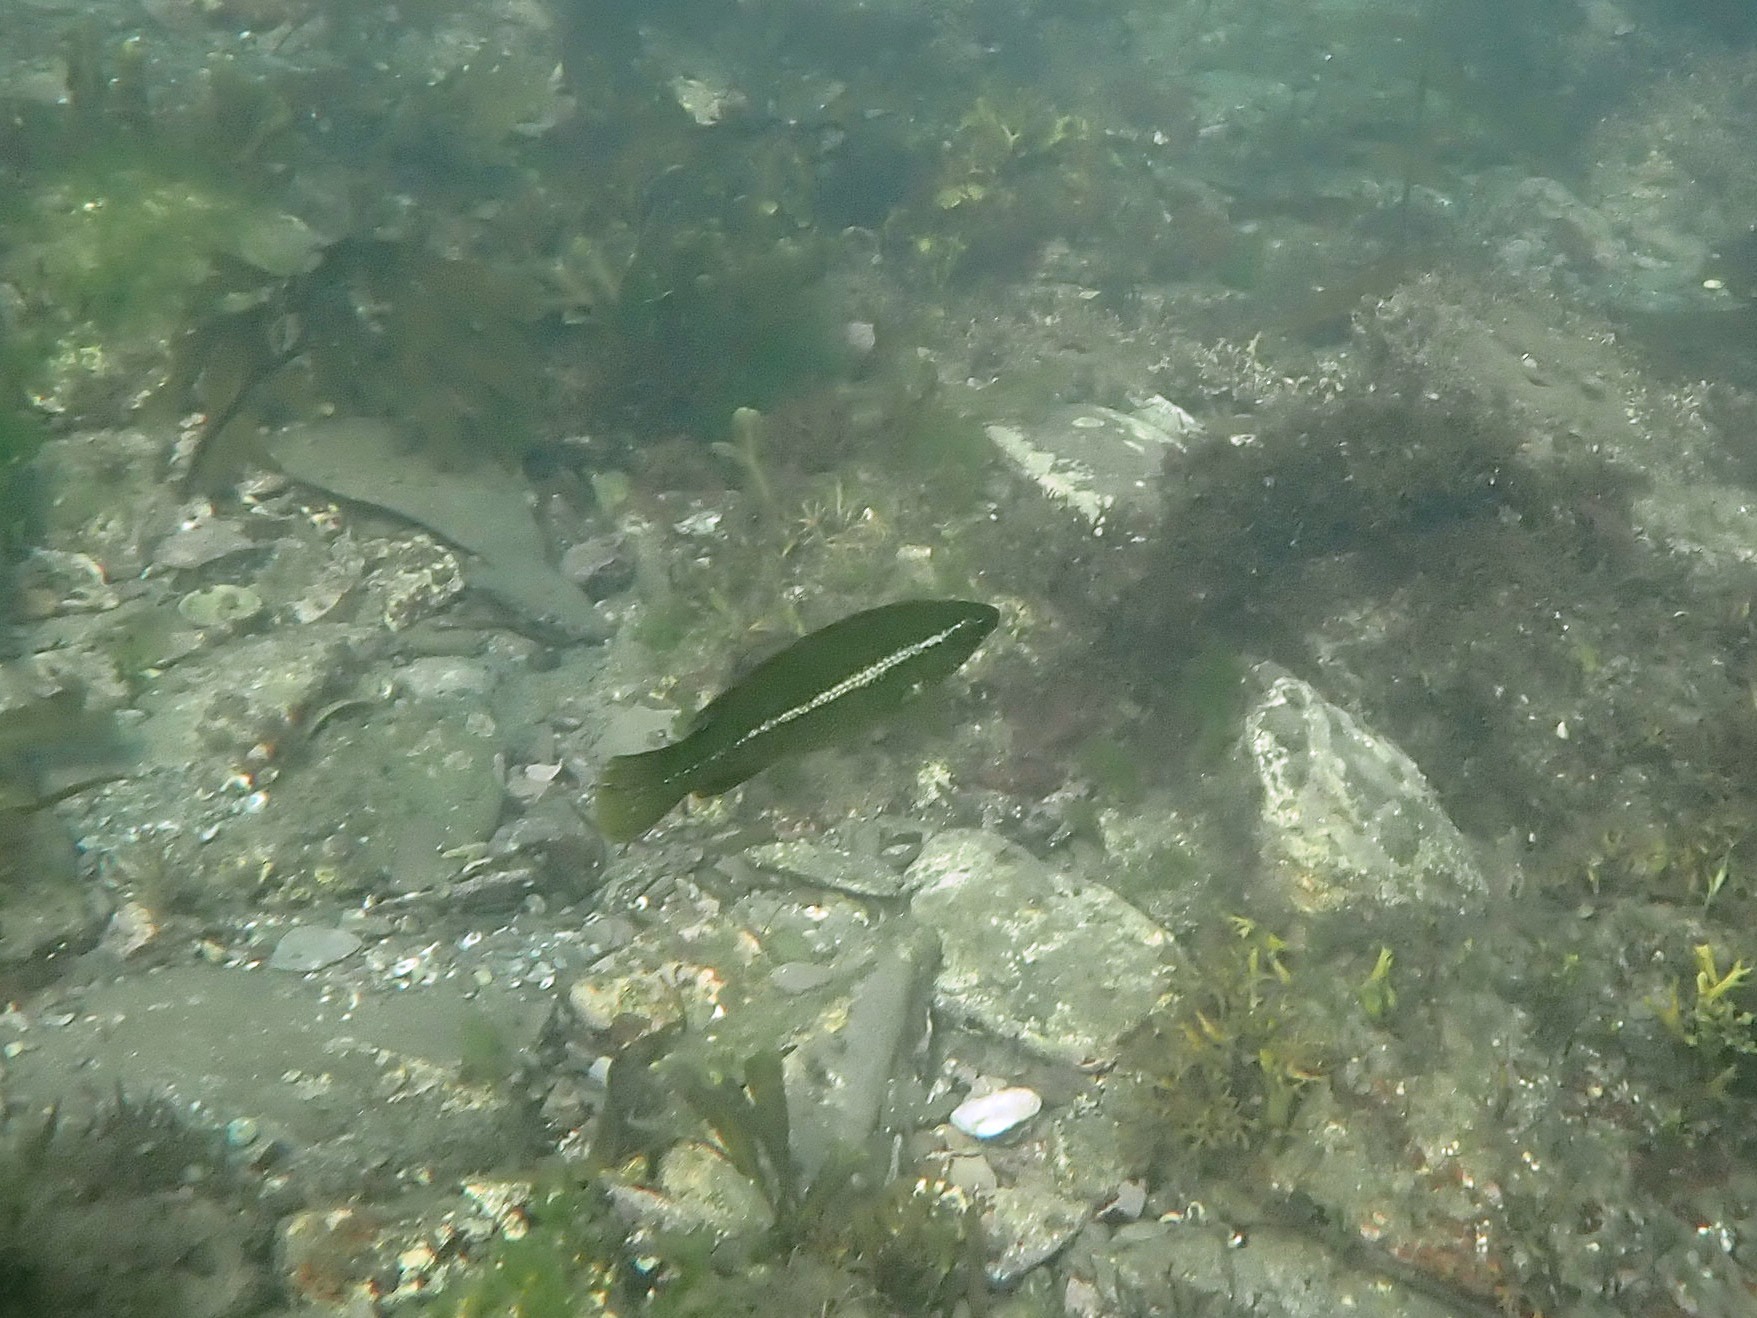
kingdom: Animalia
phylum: Chordata
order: Perciformes
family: Labridae
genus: Labrus
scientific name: Labrus bergylta
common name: Ballan wrasse
